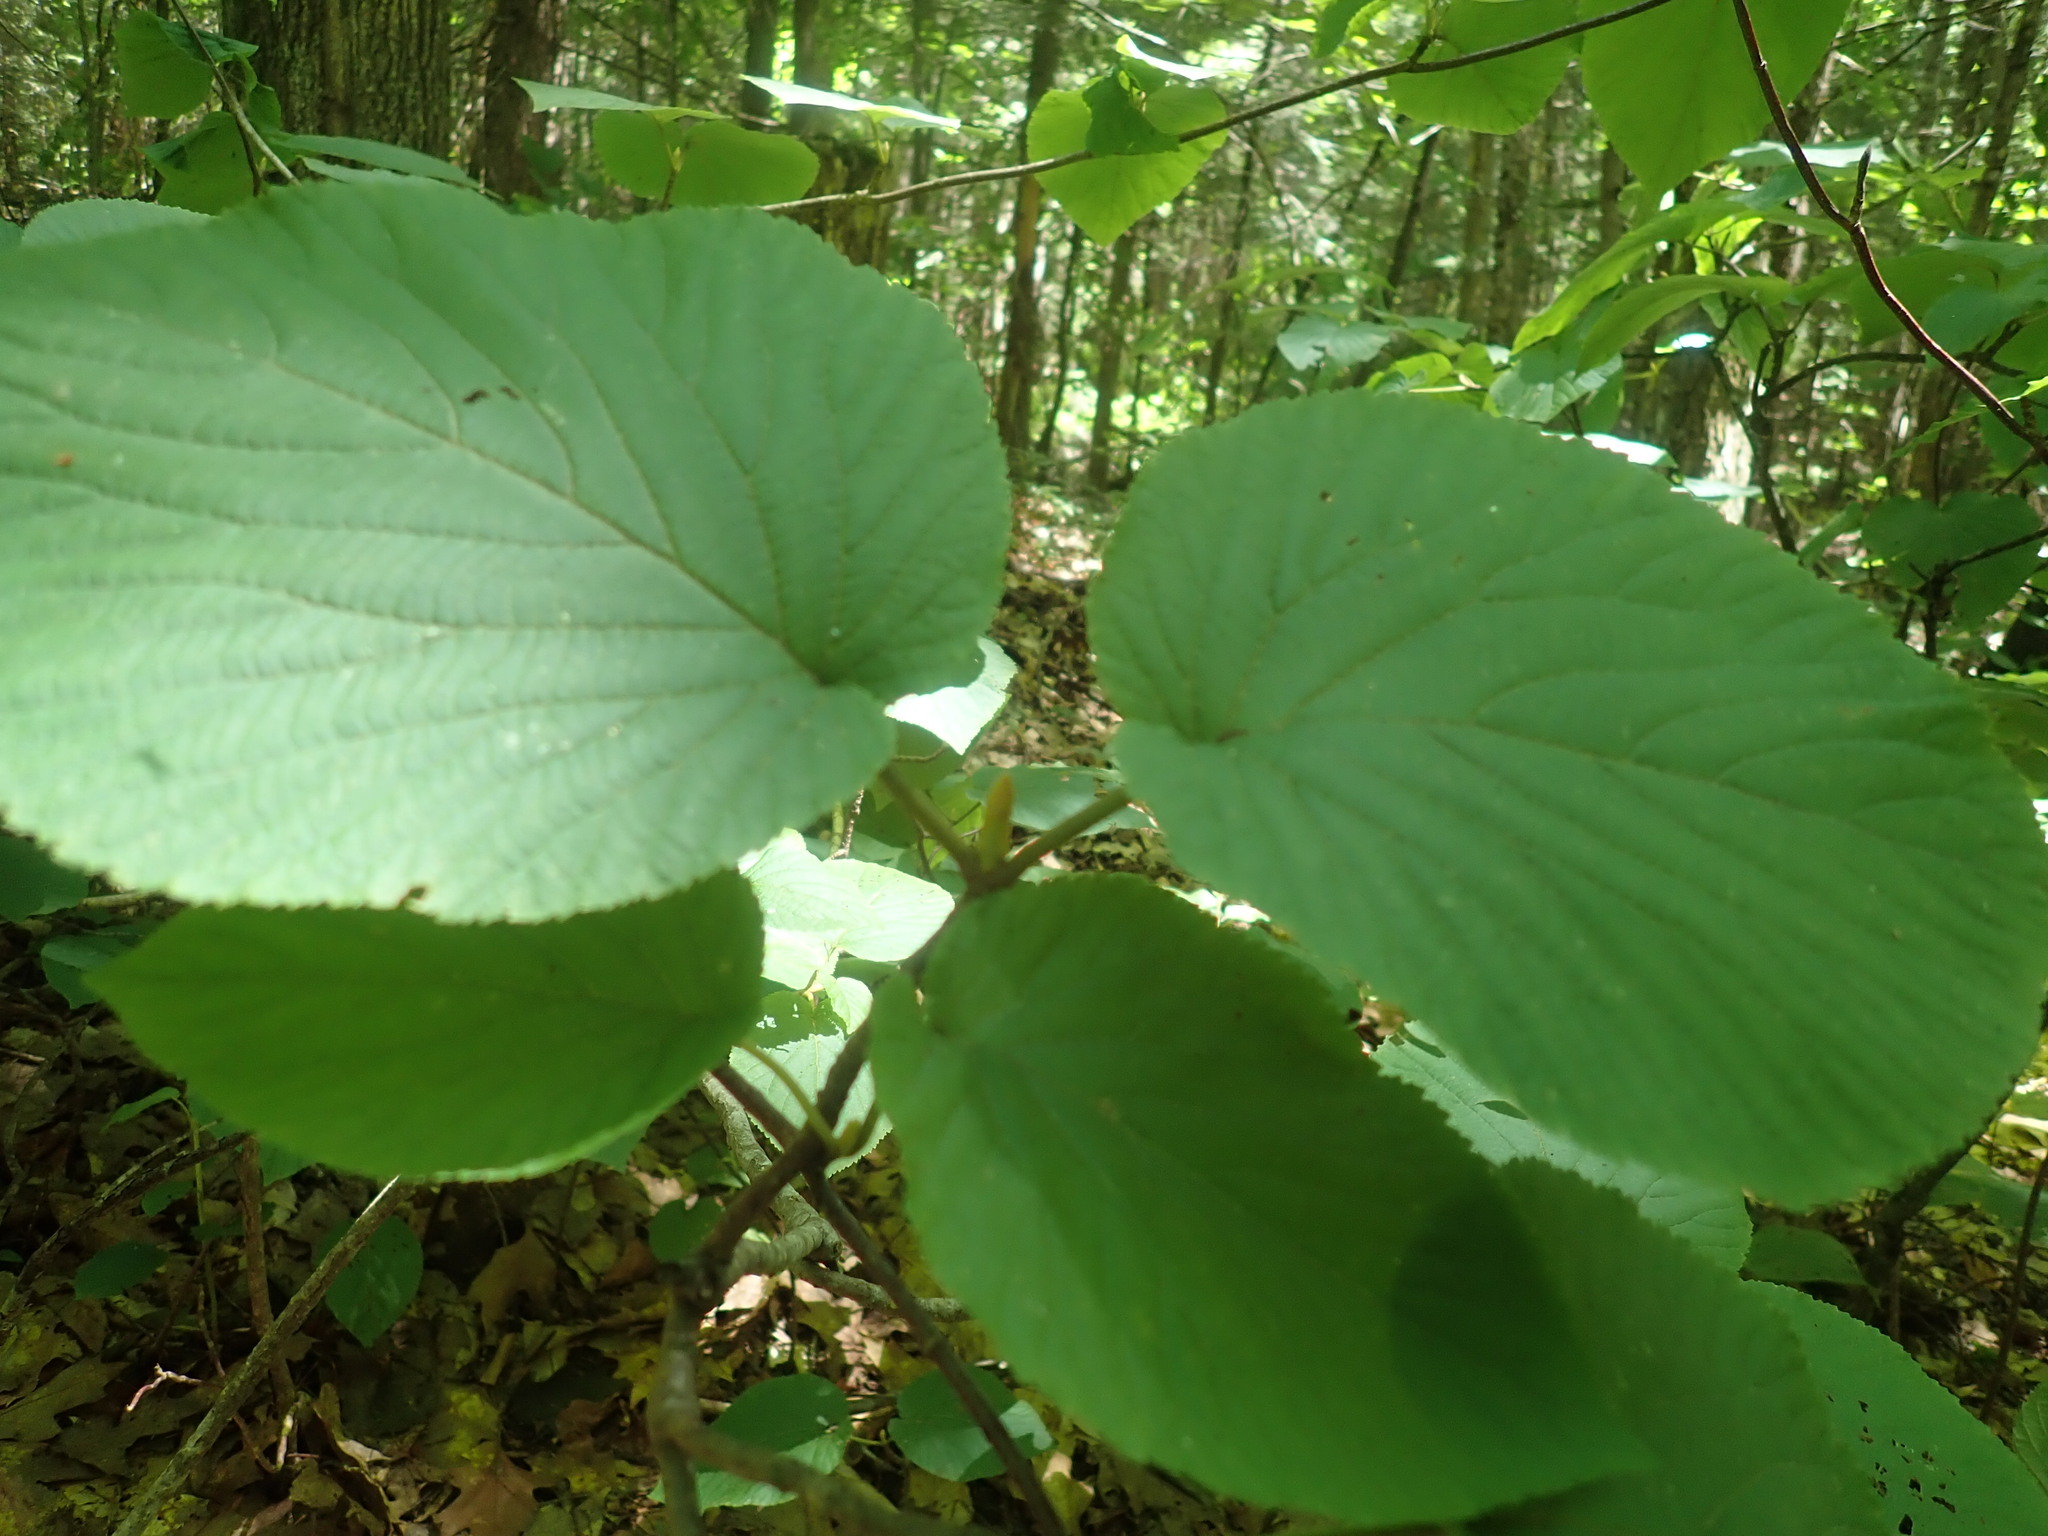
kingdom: Plantae
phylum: Tracheophyta
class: Magnoliopsida
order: Dipsacales
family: Viburnaceae
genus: Viburnum
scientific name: Viburnum lantanoides
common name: Hobblebush
